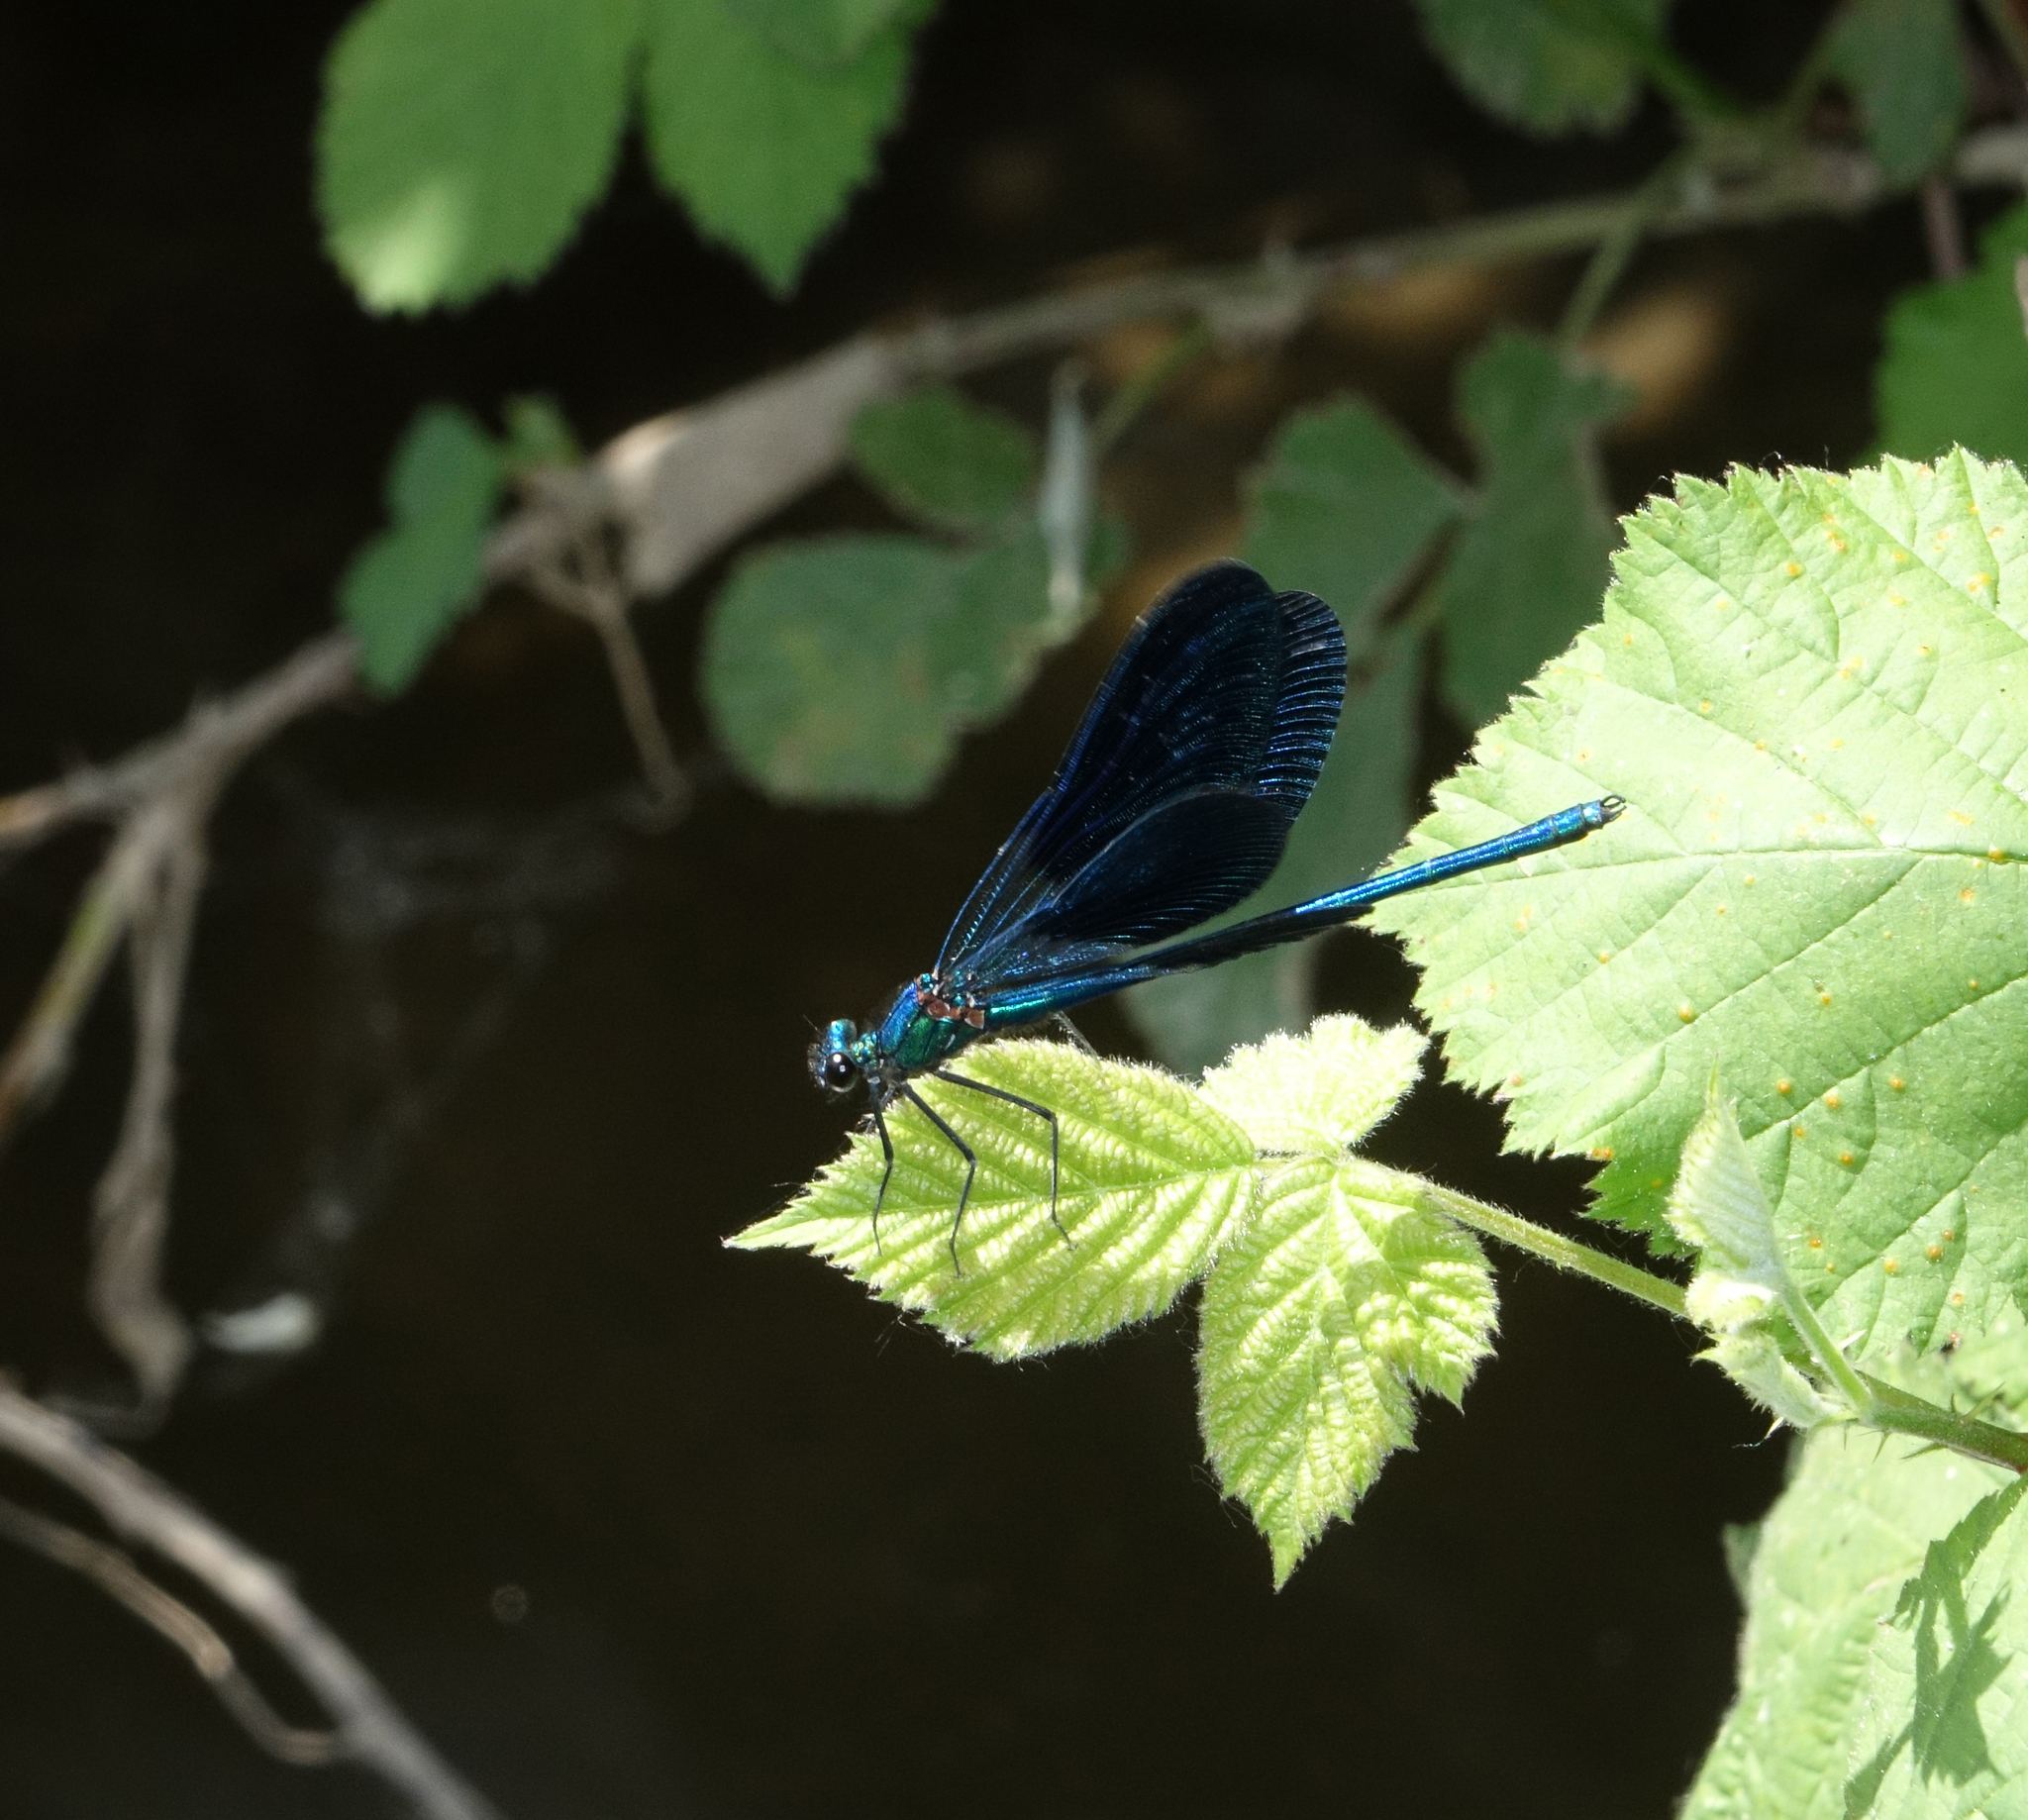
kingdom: Animalia
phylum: Arthropoda
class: Insecta
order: Odonata
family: Calopterygidae
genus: Calopteryx
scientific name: Calopteryx splendens
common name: Banded demoiselle
